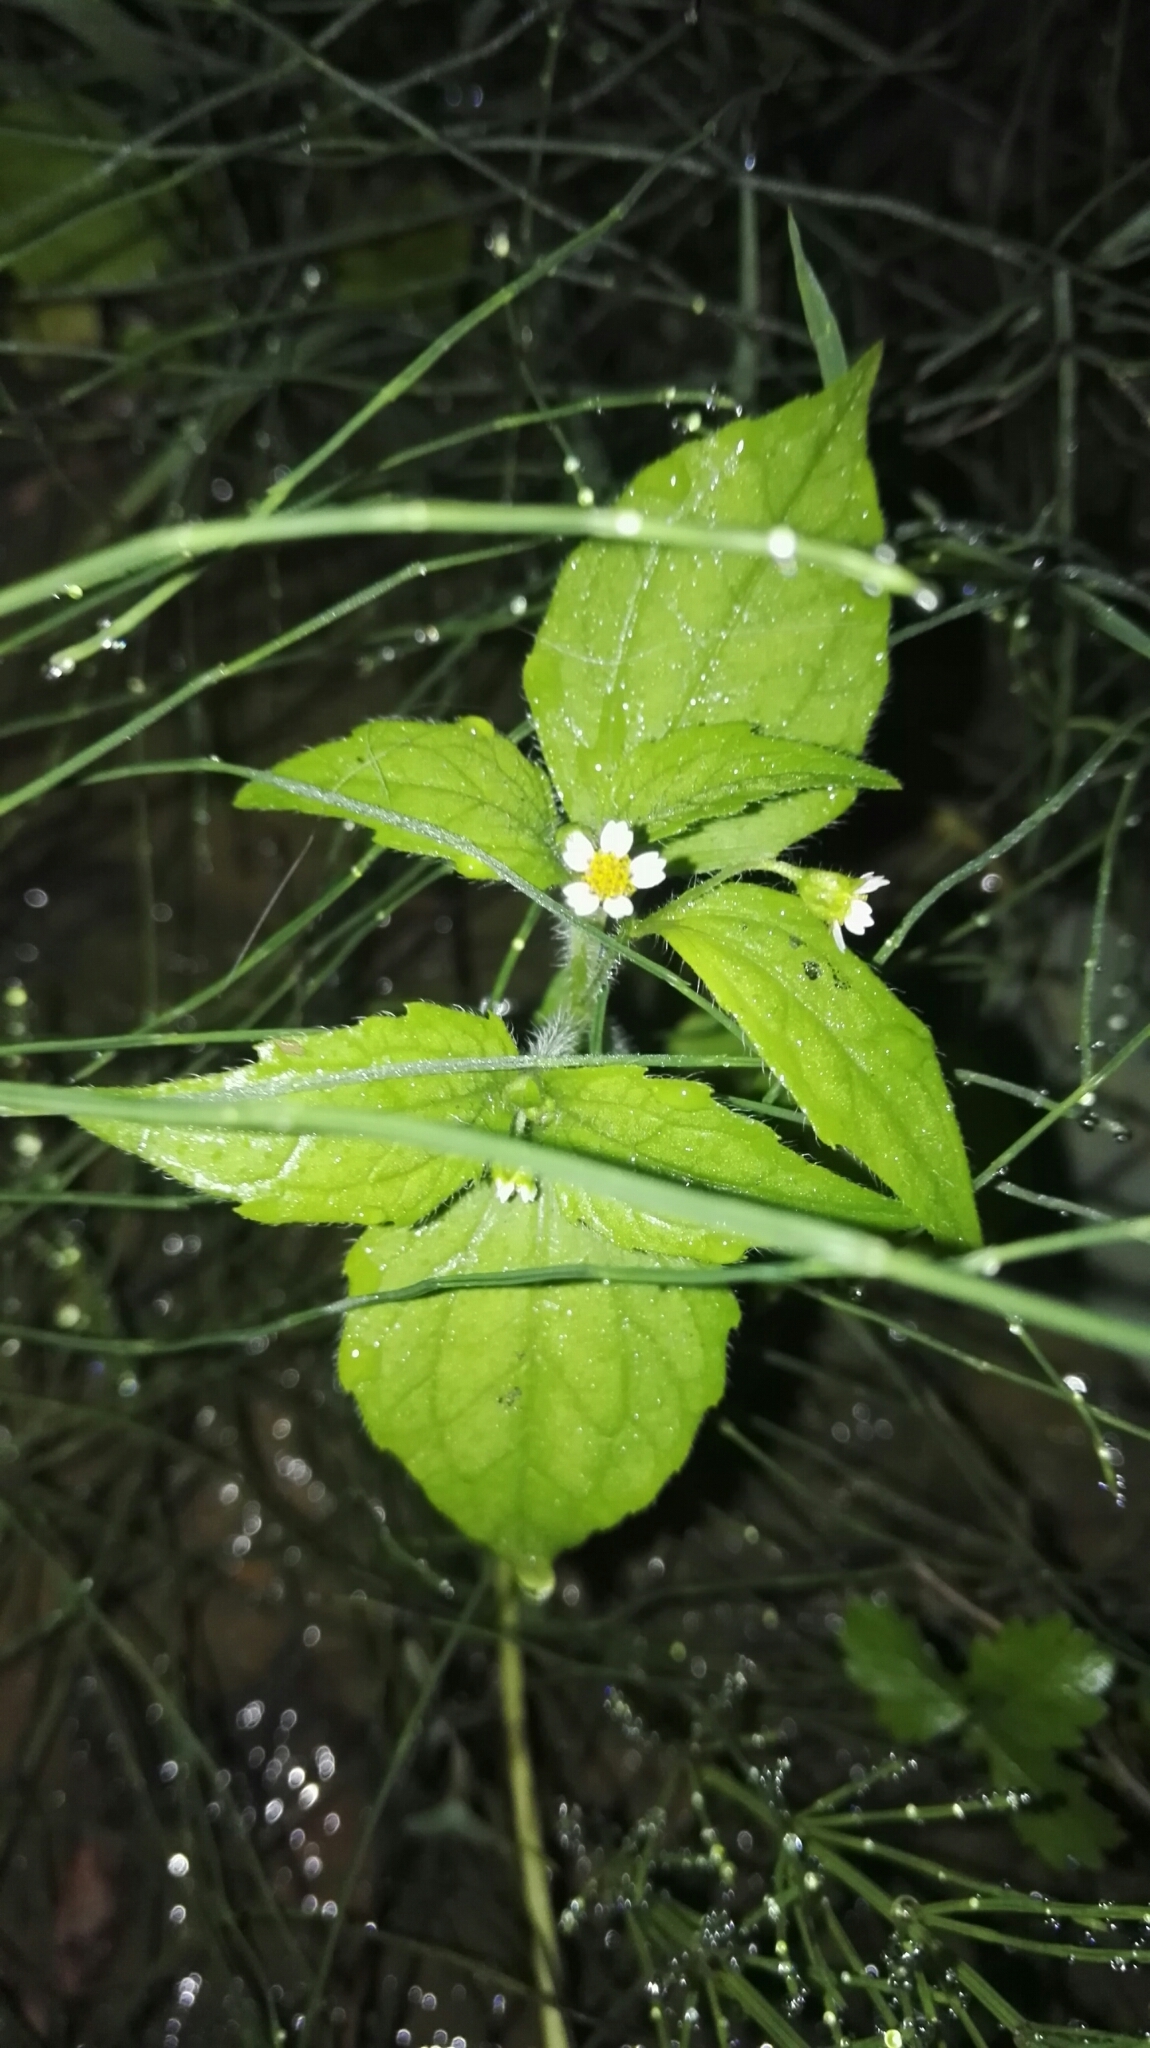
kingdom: Plantae
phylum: Tracheophyta
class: Magnoliopsida
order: Asterales
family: Asteraceae
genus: Galinsoga
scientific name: Galinsoga quadriradiata
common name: Shaggy soldier
